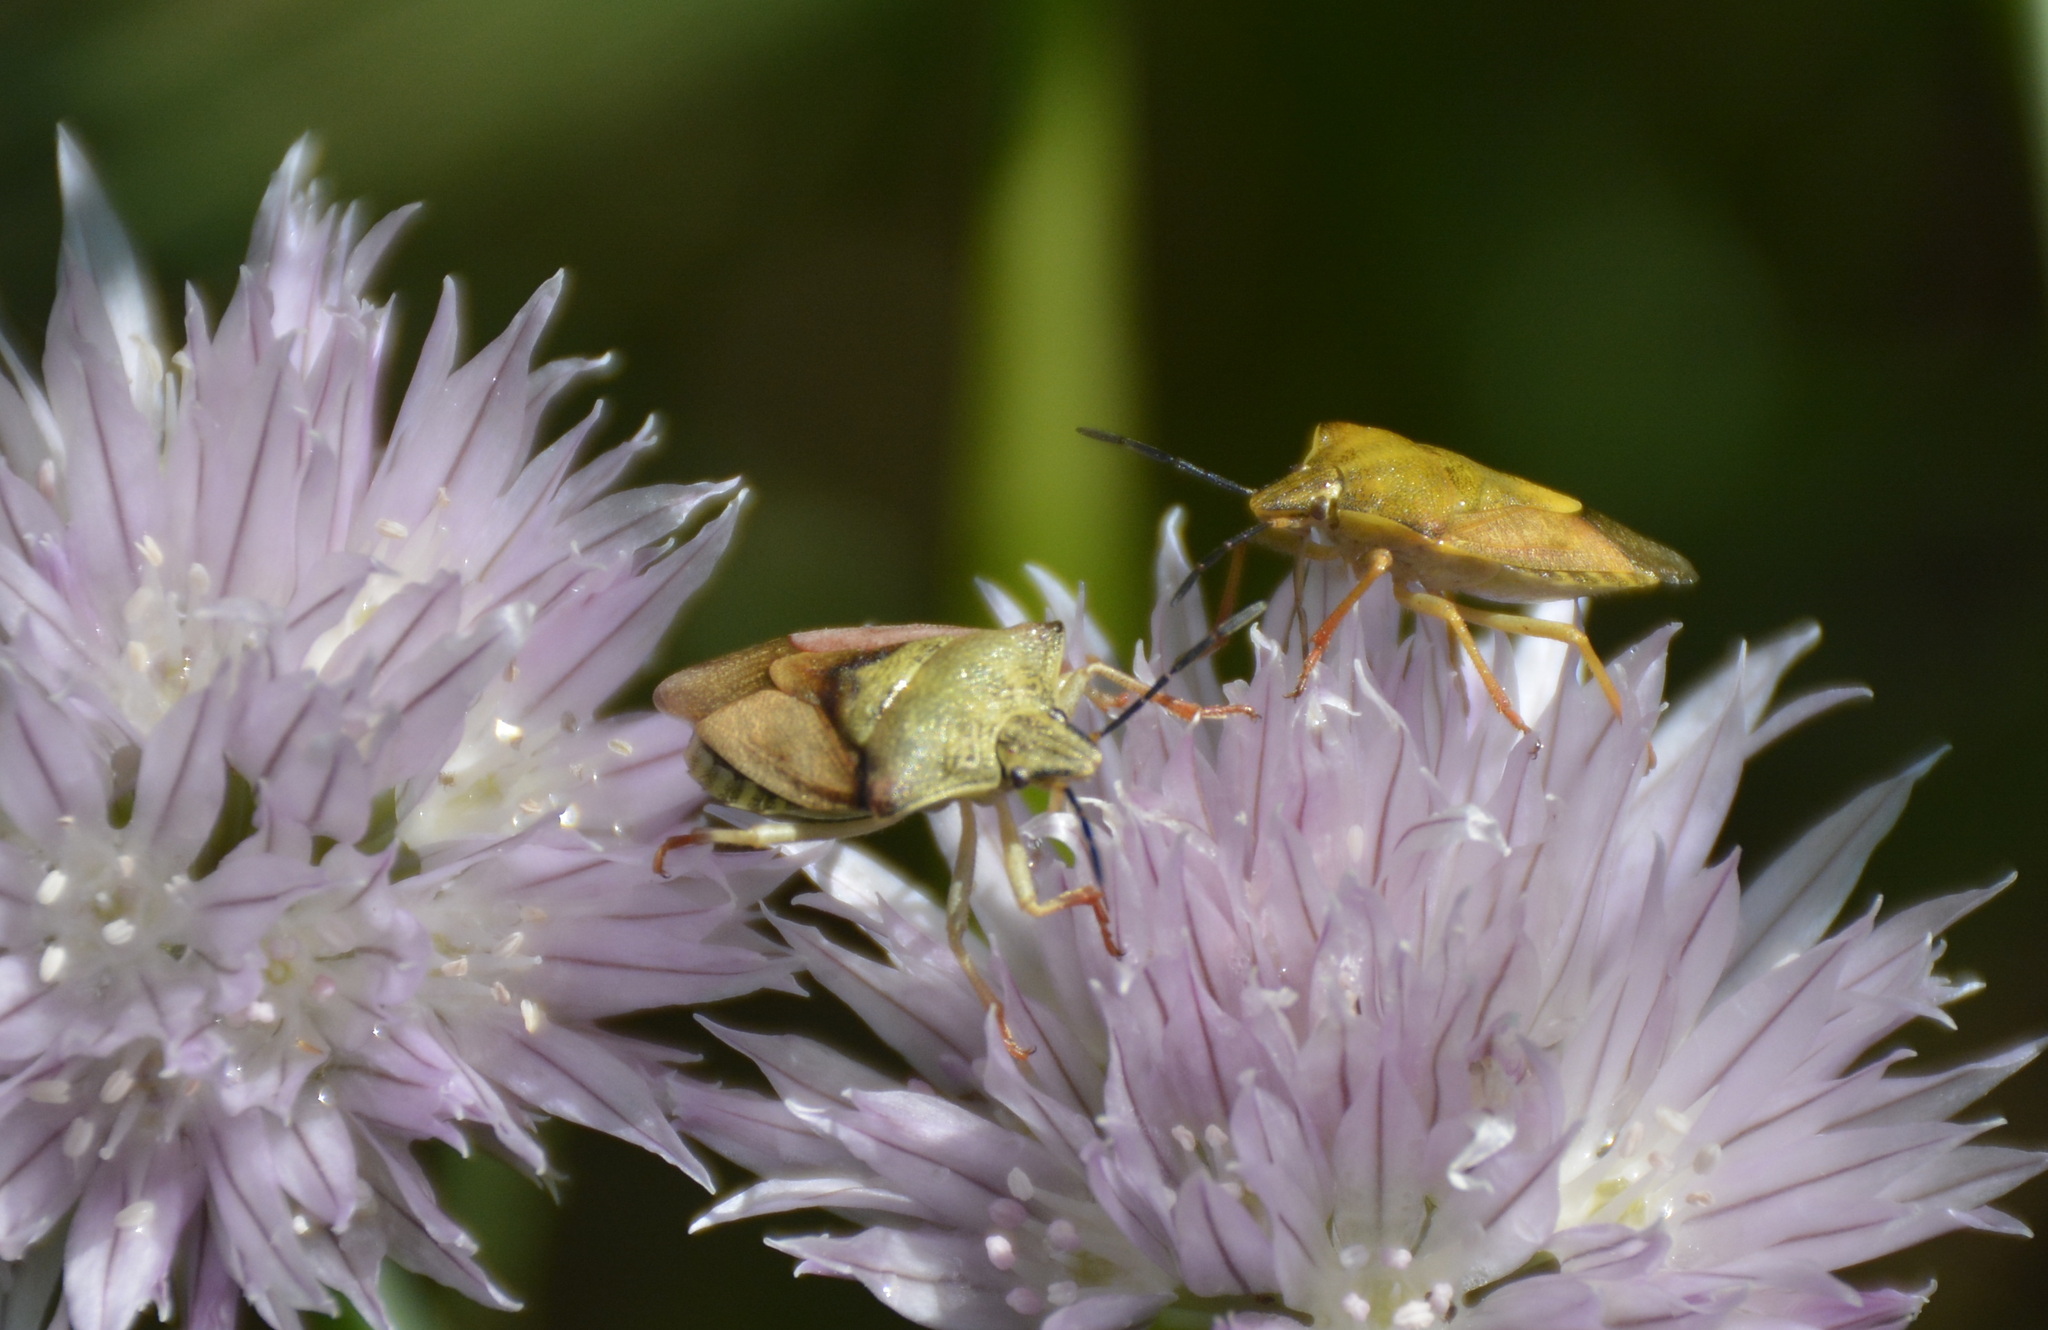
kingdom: Animalia
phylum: Arthropoda
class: Insecta
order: Hemiptera
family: Pentatomidae
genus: Carpocoris
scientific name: Carpocoris purpureipennis
